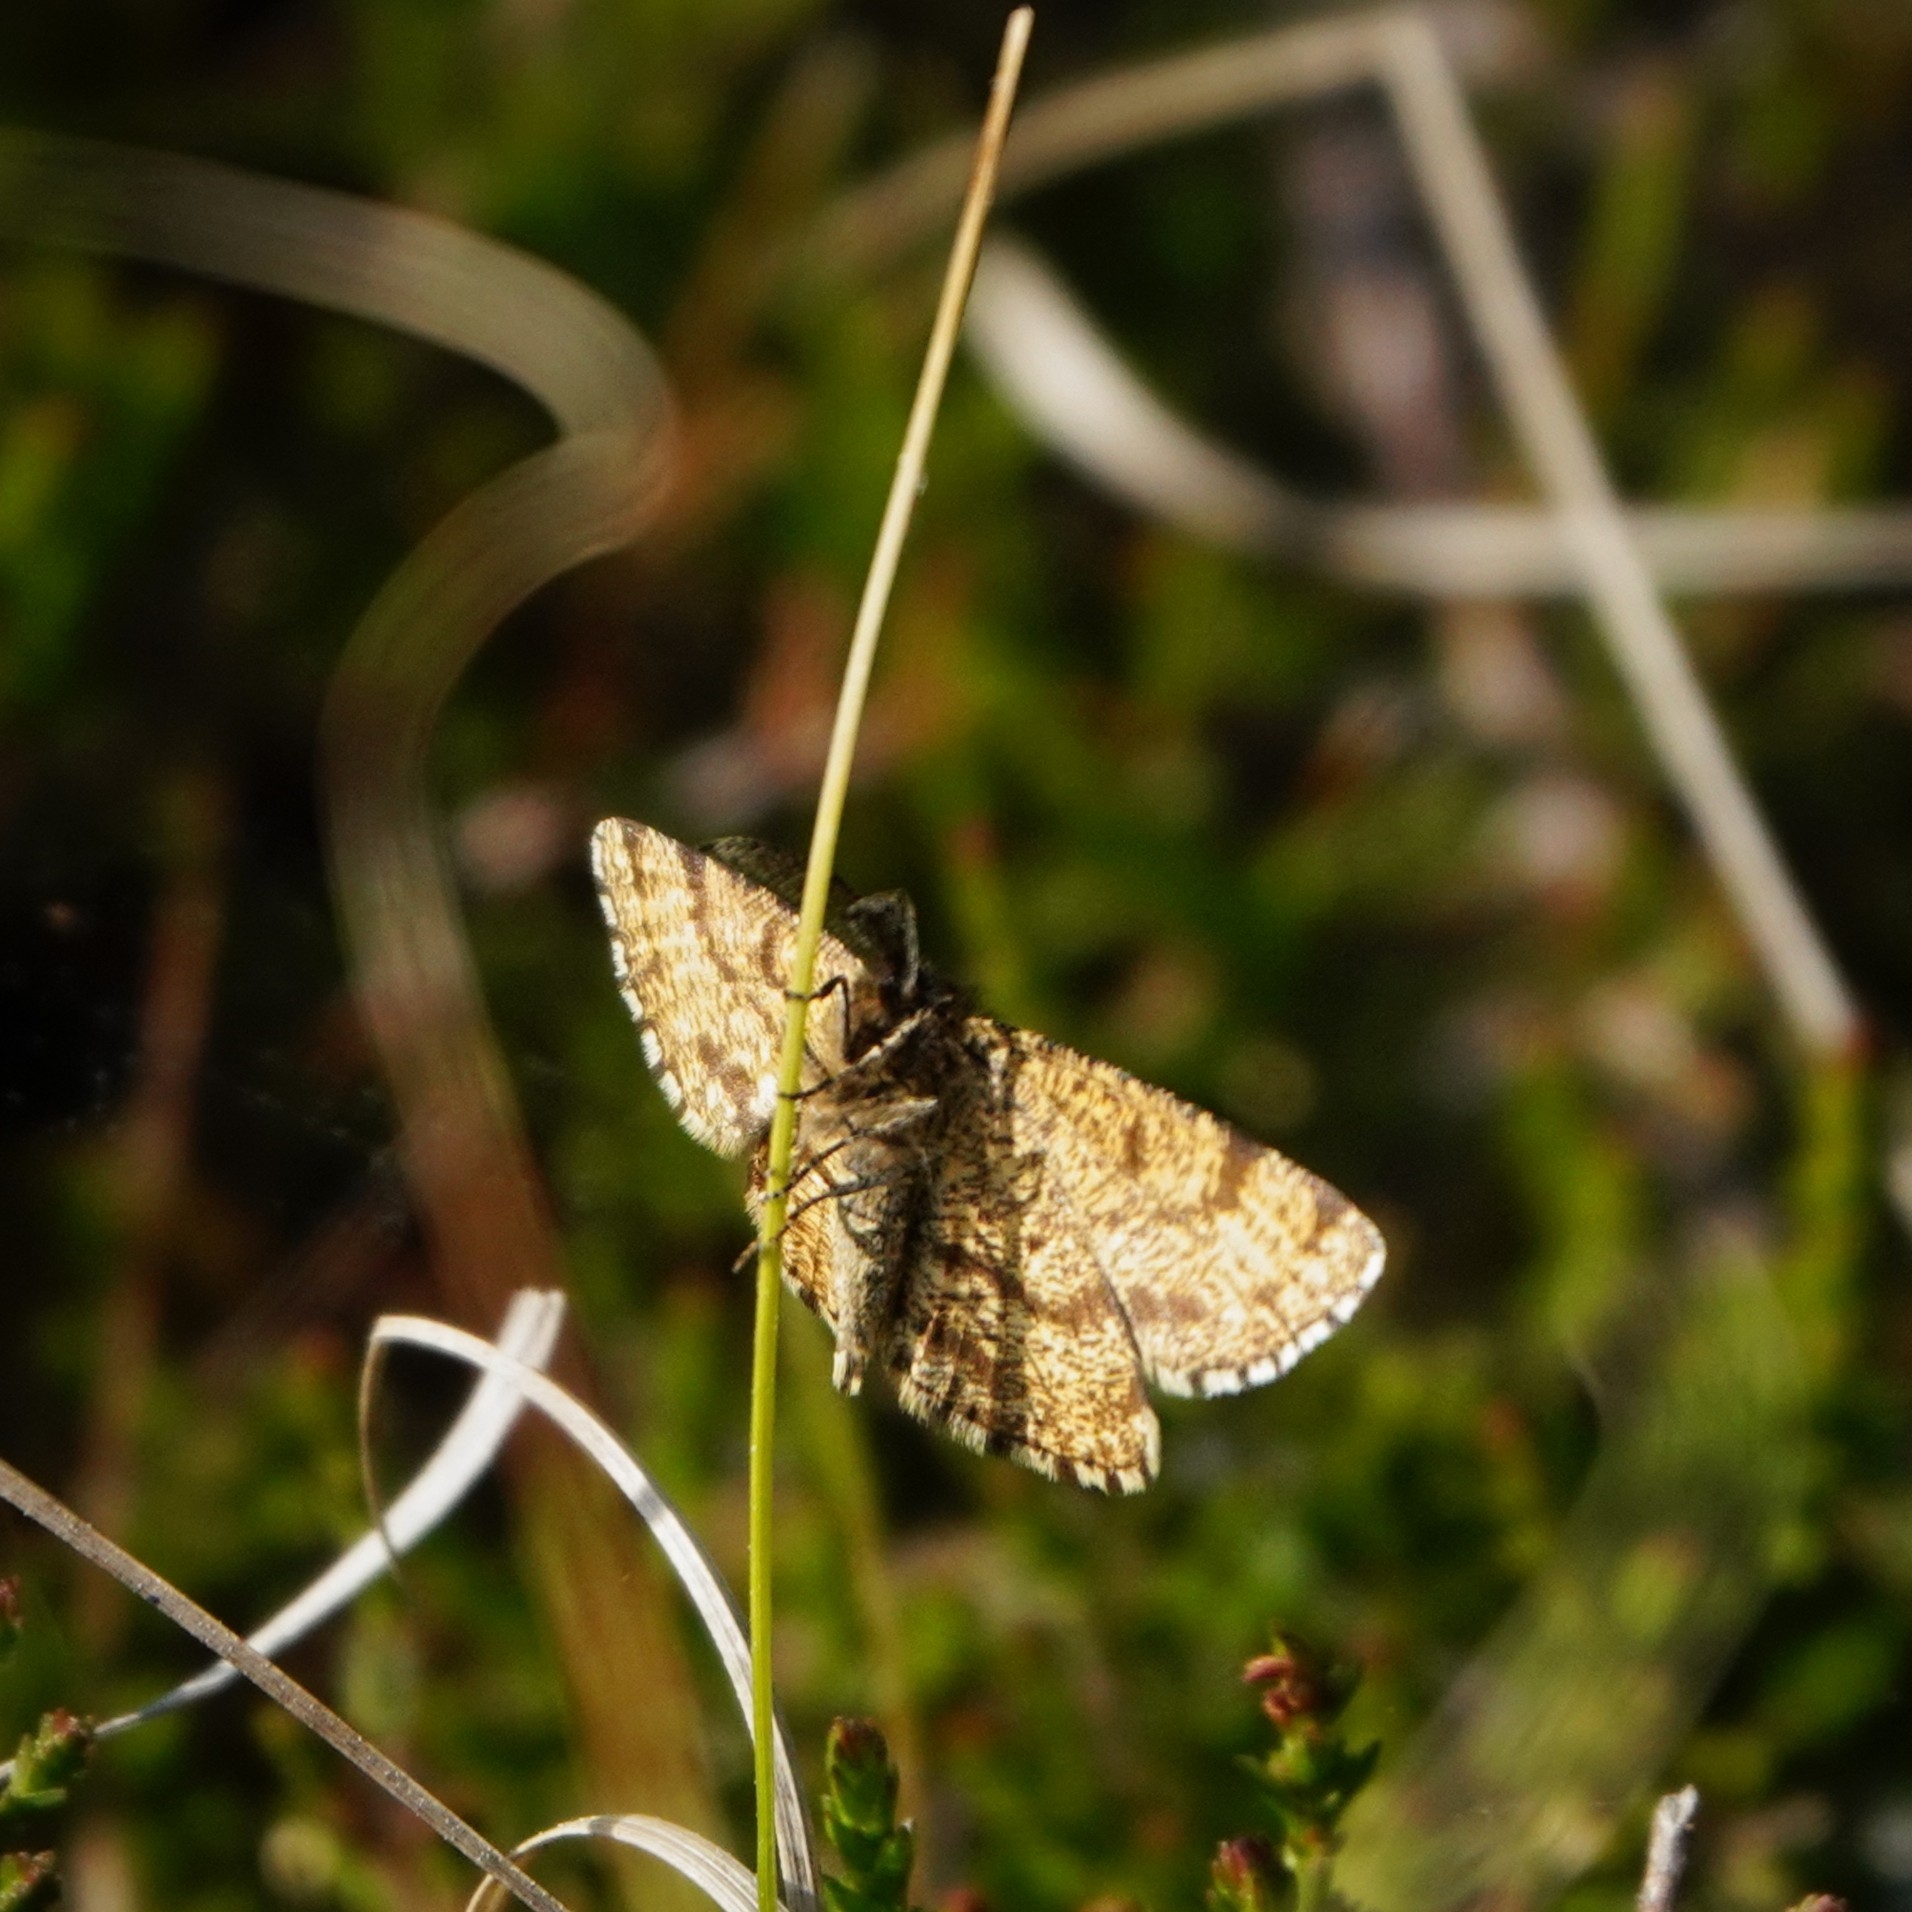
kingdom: Animalia
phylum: Arthropoda
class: Insecta
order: Lepidoptera
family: Geometridae
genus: Ematurga
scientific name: Ematurga atomaria
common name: Common heath
